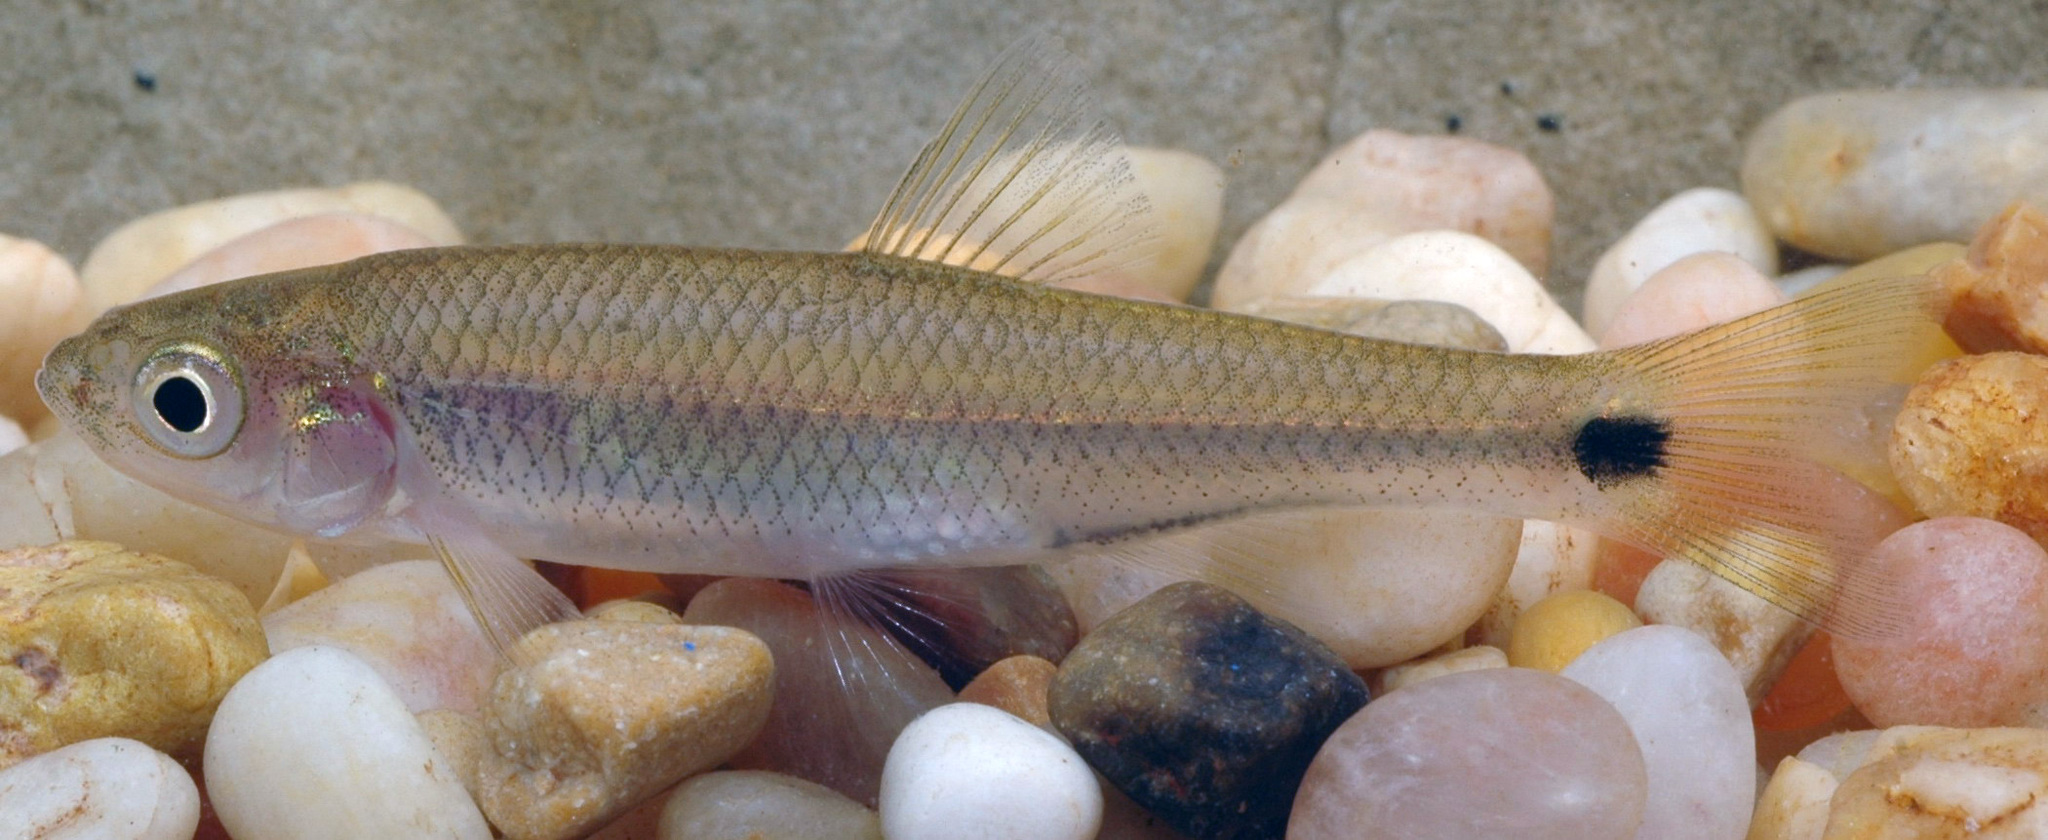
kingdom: Animalia
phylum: Chordata
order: Cypriniformes
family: Cyprinidae
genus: Cyprinella
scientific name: Cyprinella venusta
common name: Blacktail shiner
